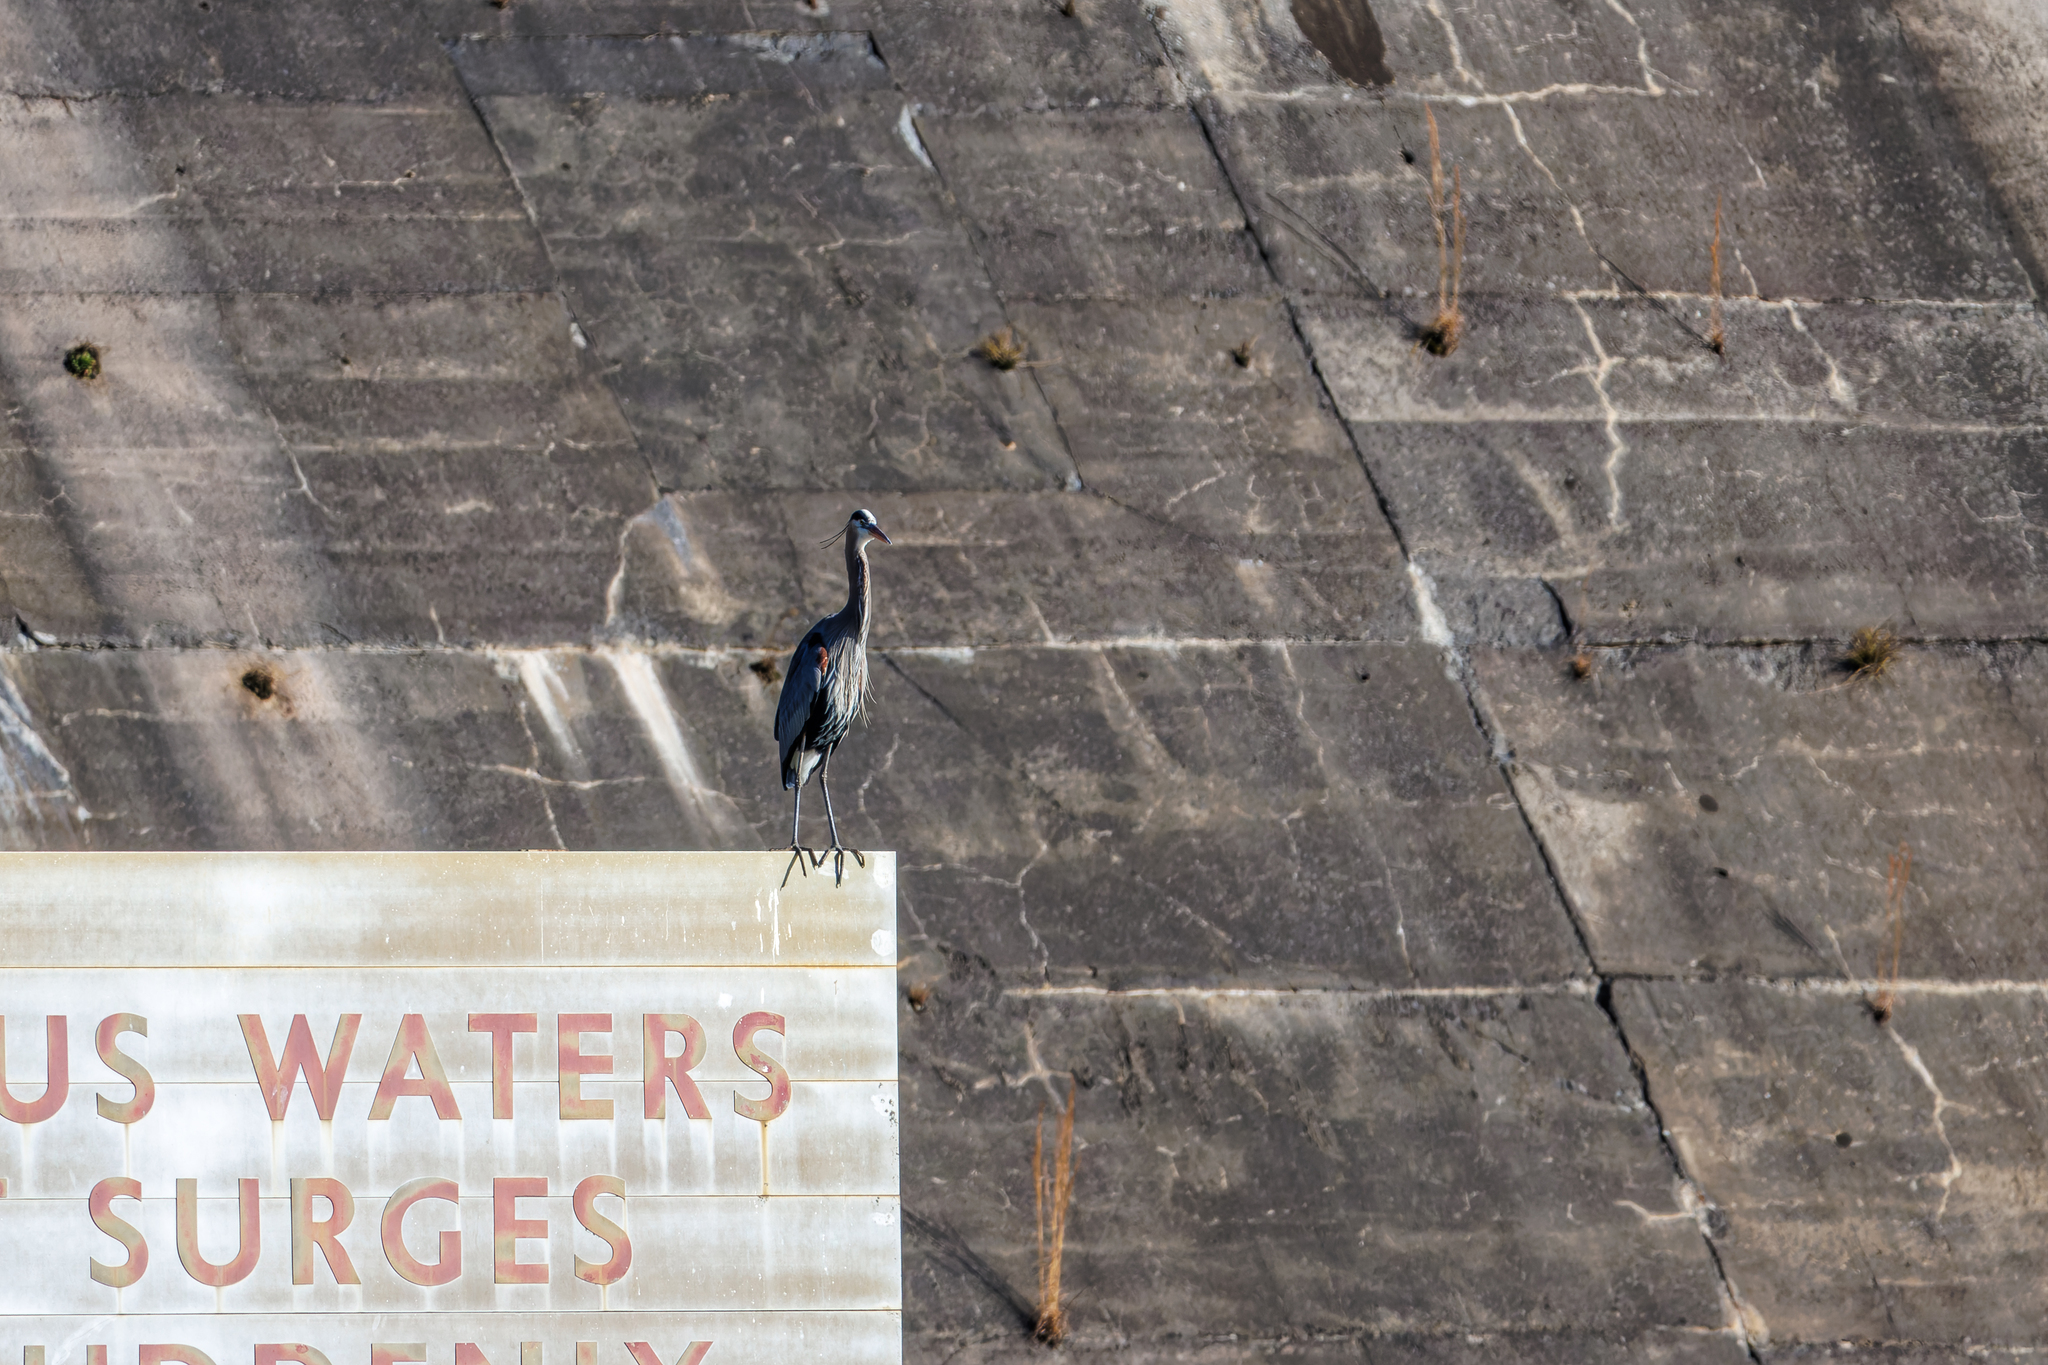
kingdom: Animalia
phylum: Chordata
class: Aves
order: Pelecaniformes
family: Ardeidae
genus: Ardea
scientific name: Ardea herodias
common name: Great blue heron
